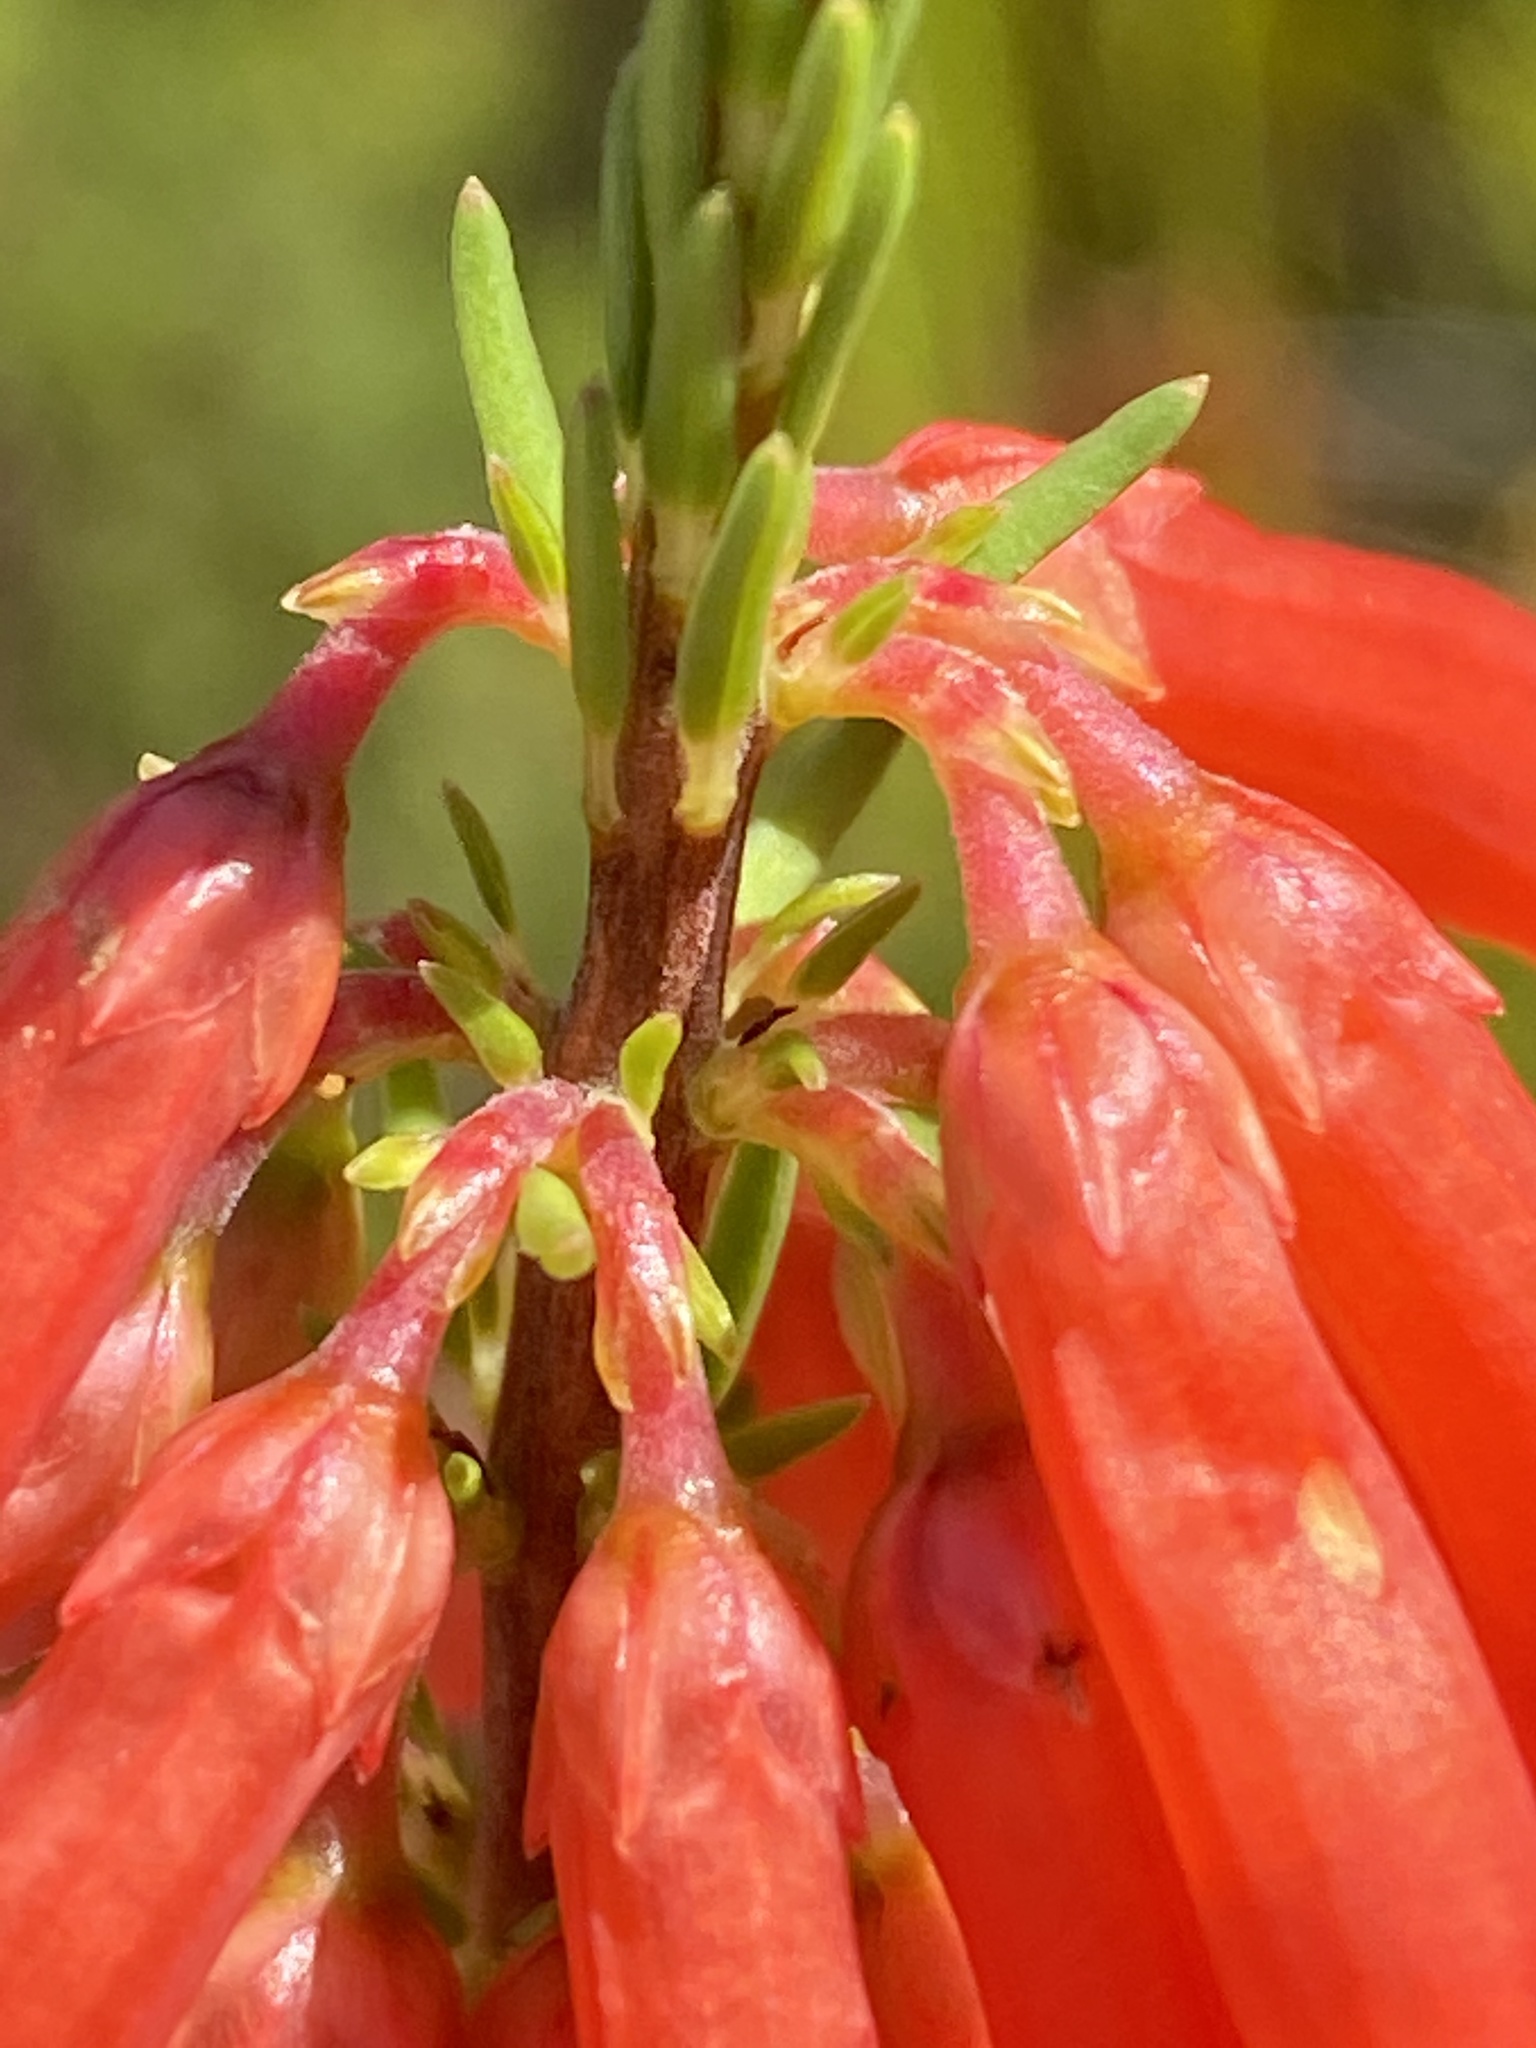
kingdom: Plantae
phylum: Tracheophyta
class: Magnoliopsida
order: Ericales
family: Ericaceae
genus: Erica
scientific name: Erica mammosa
